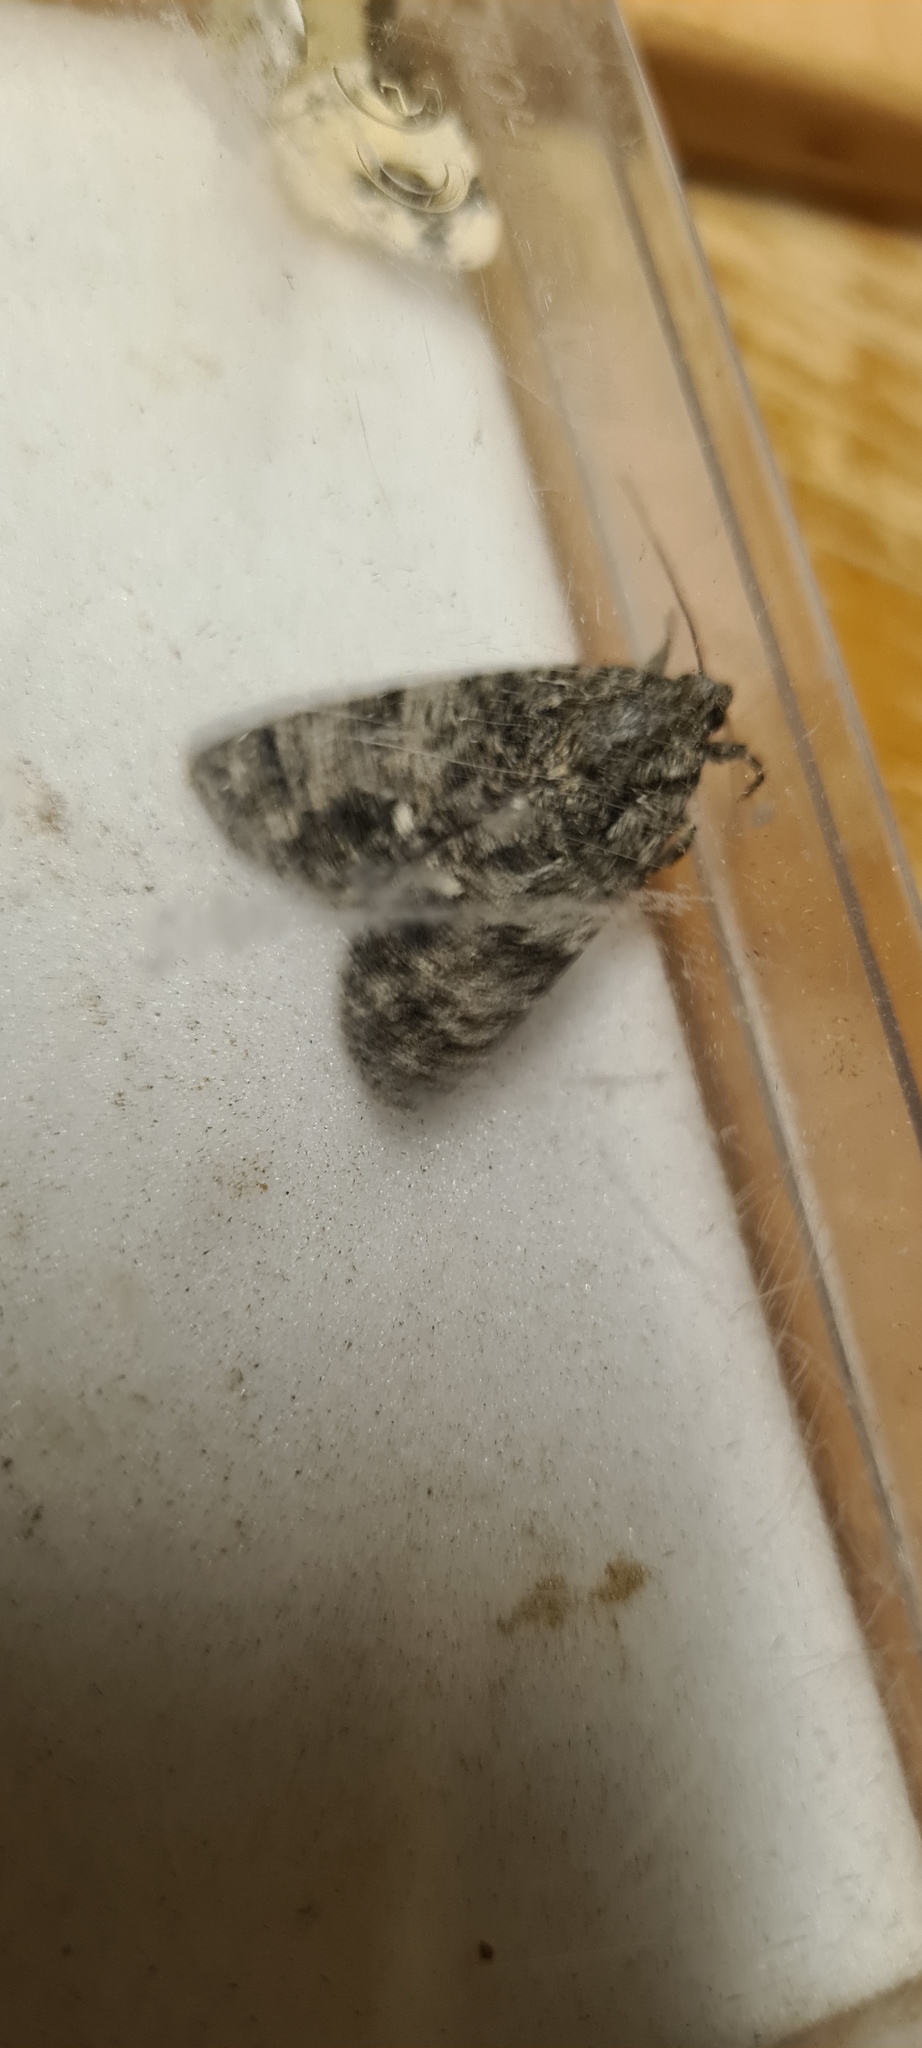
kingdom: Animalia
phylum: Arthropoda
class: Insecta
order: Lepidoptera
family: Noctuidae
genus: Acronicta
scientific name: Acronicta rumicis
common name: Knot grass
